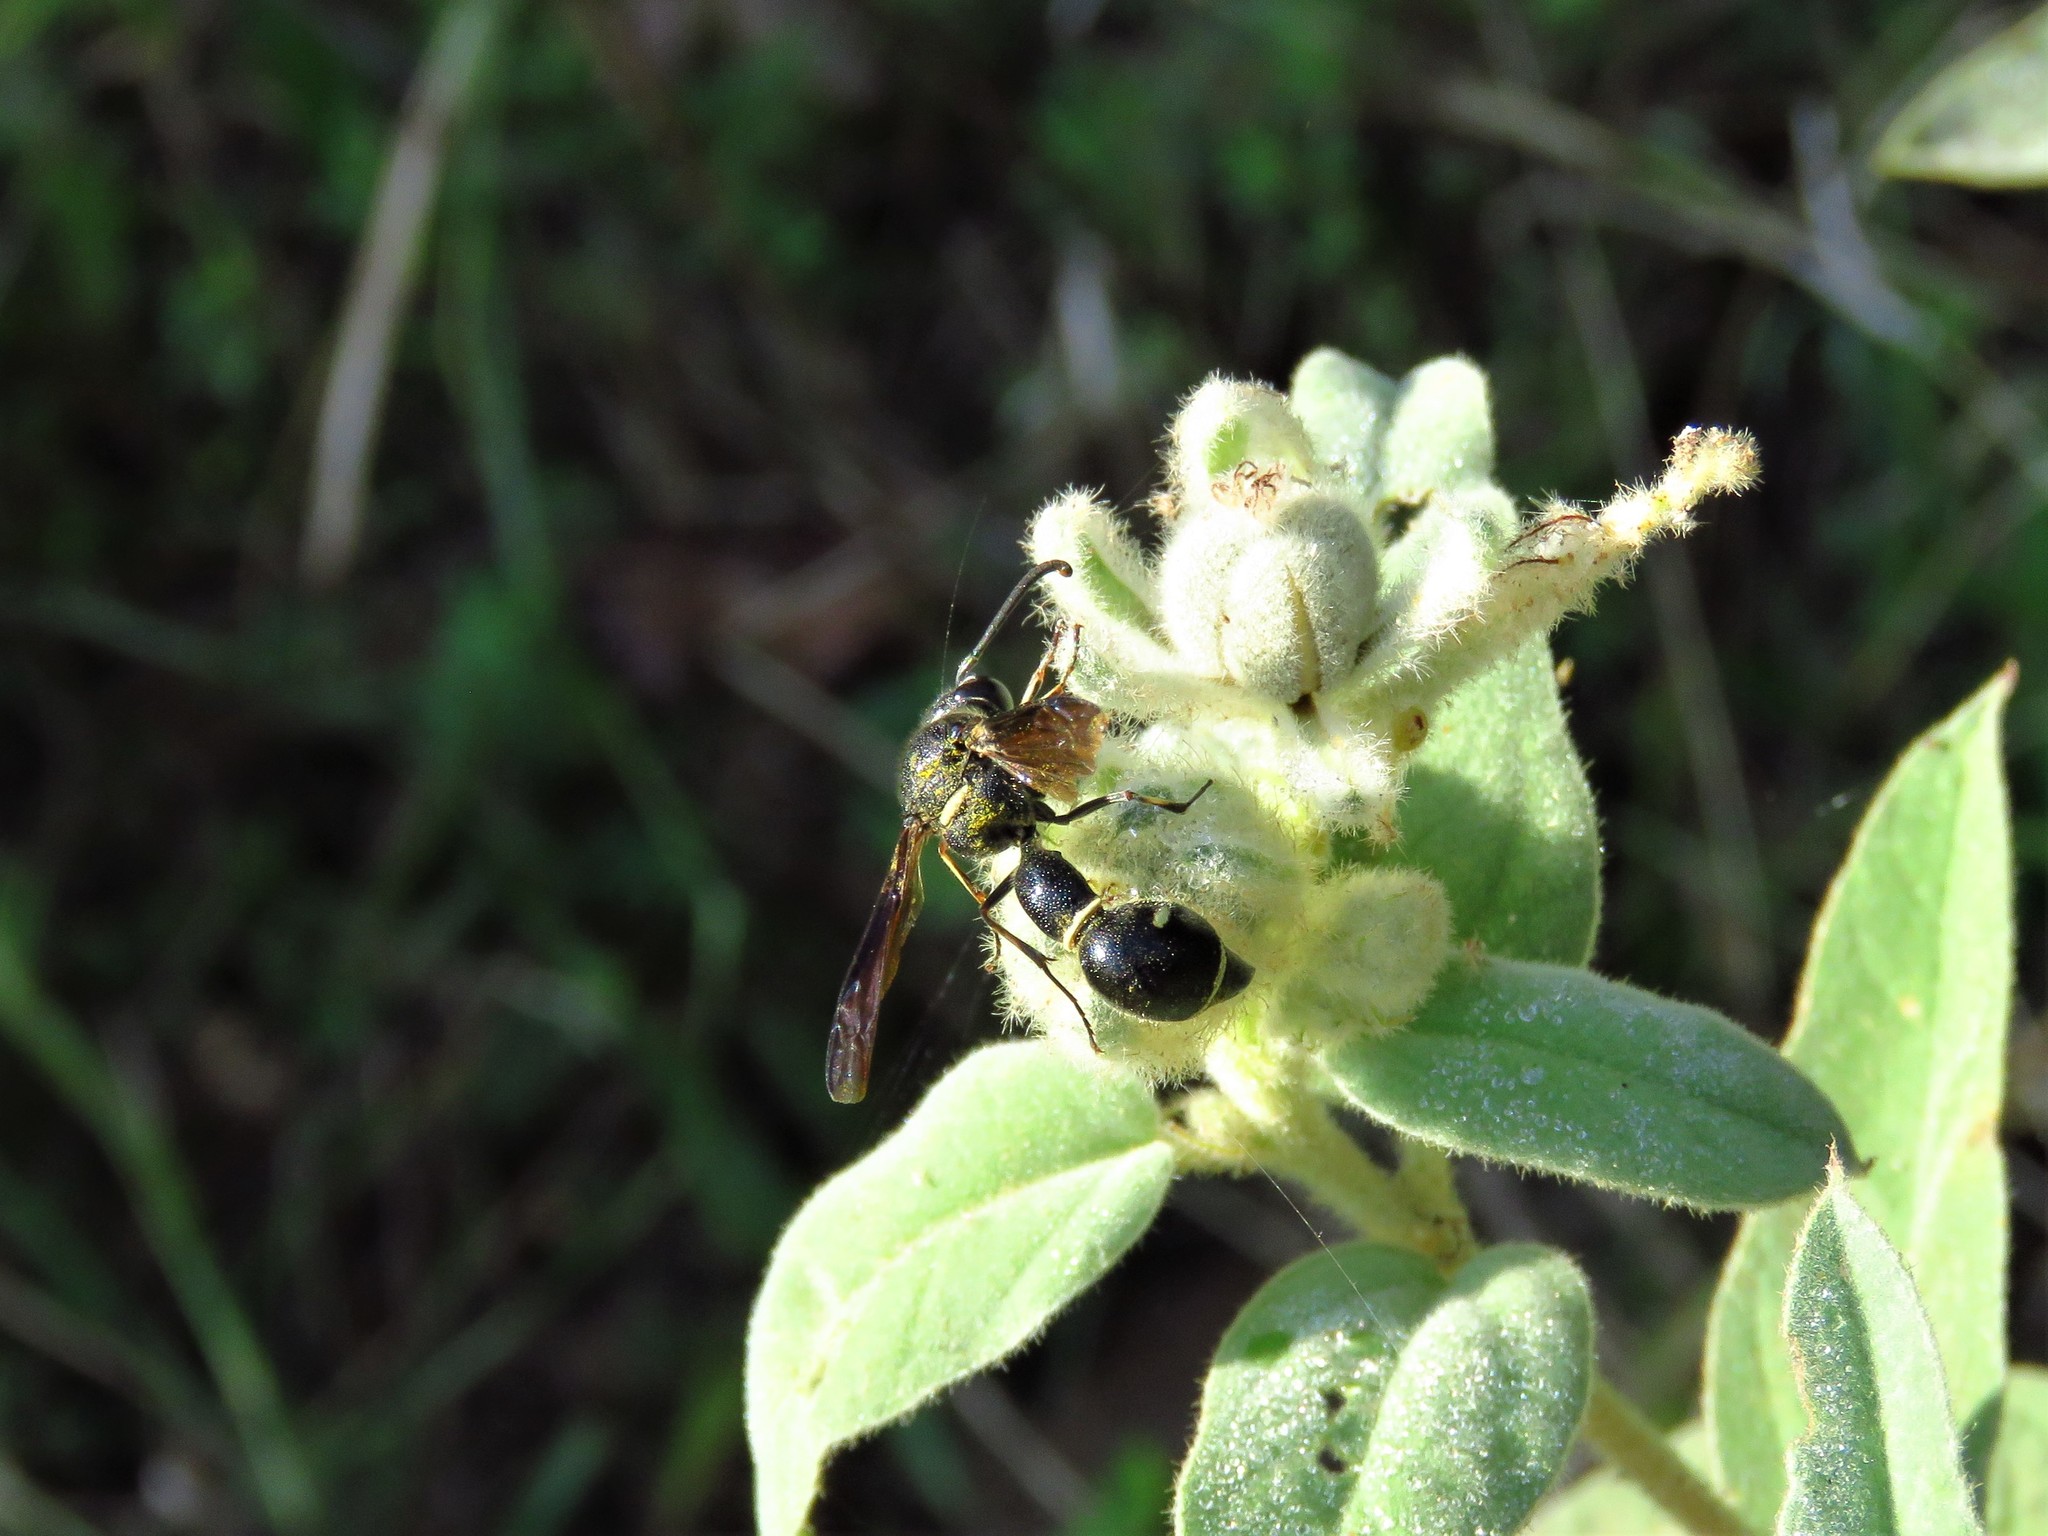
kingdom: Animalia
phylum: Arthropoda
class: Insecta
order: Hymenoptera
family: Vespidae
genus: Eumenes
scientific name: Eumenes fraternus
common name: Fraternal potter wasp
